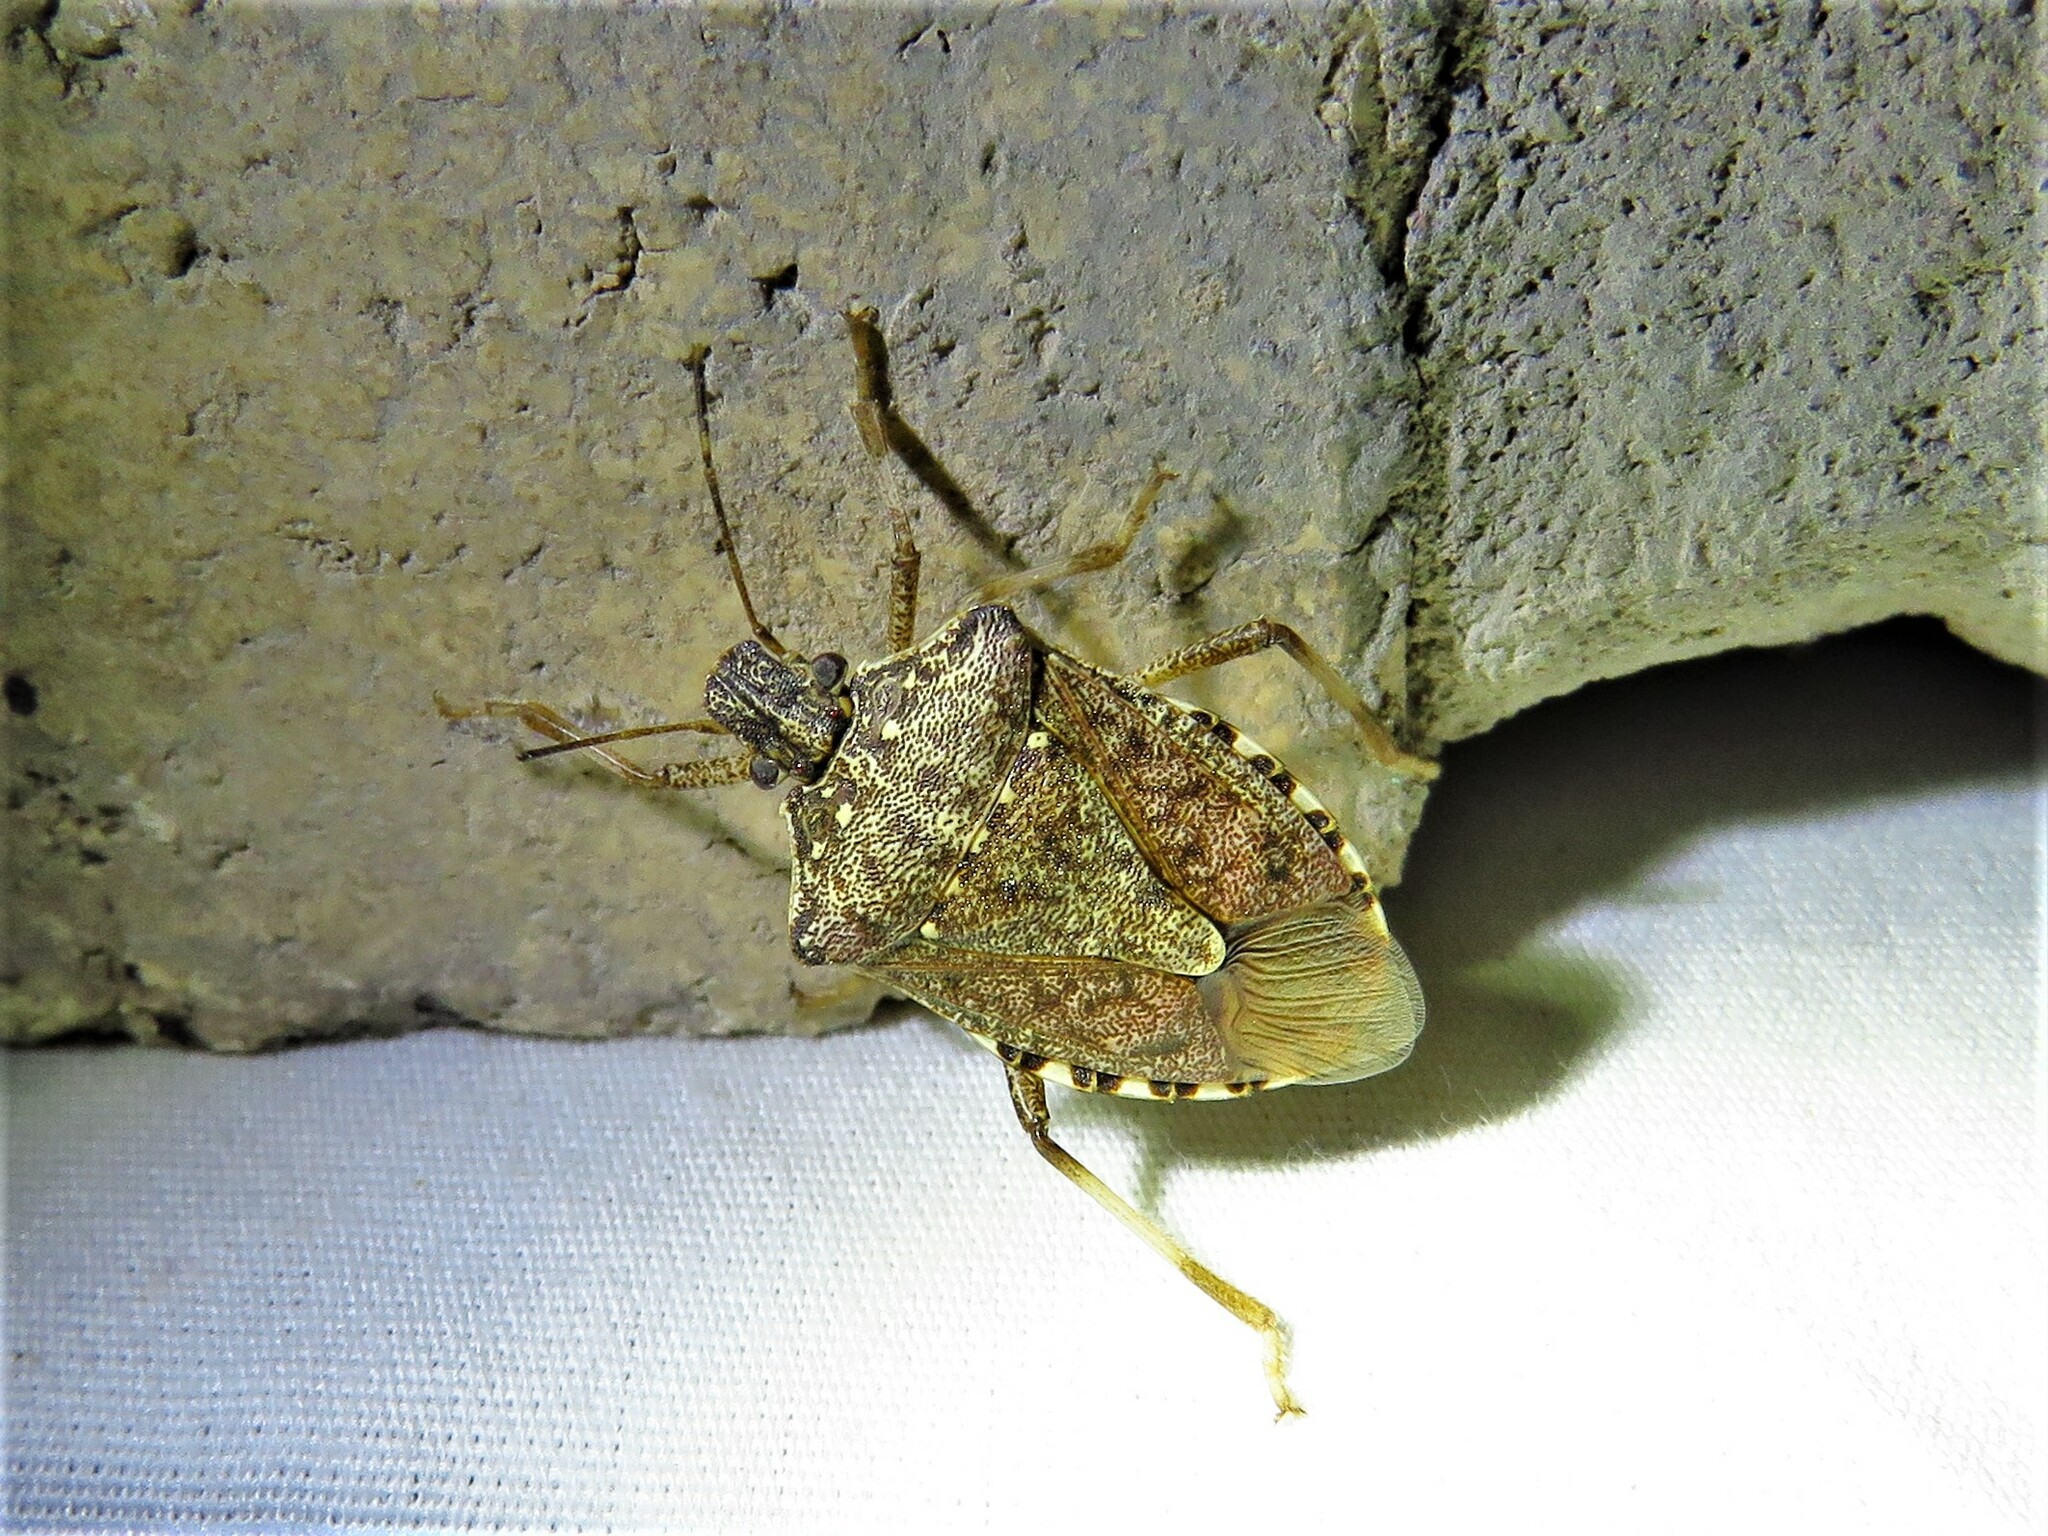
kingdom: Animalia
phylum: Arthropoda
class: Insecta
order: Hemiptera
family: Pentatomidae
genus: Halyomorpha
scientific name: Halyomorpha halys
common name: Brown marmorated stink bug
